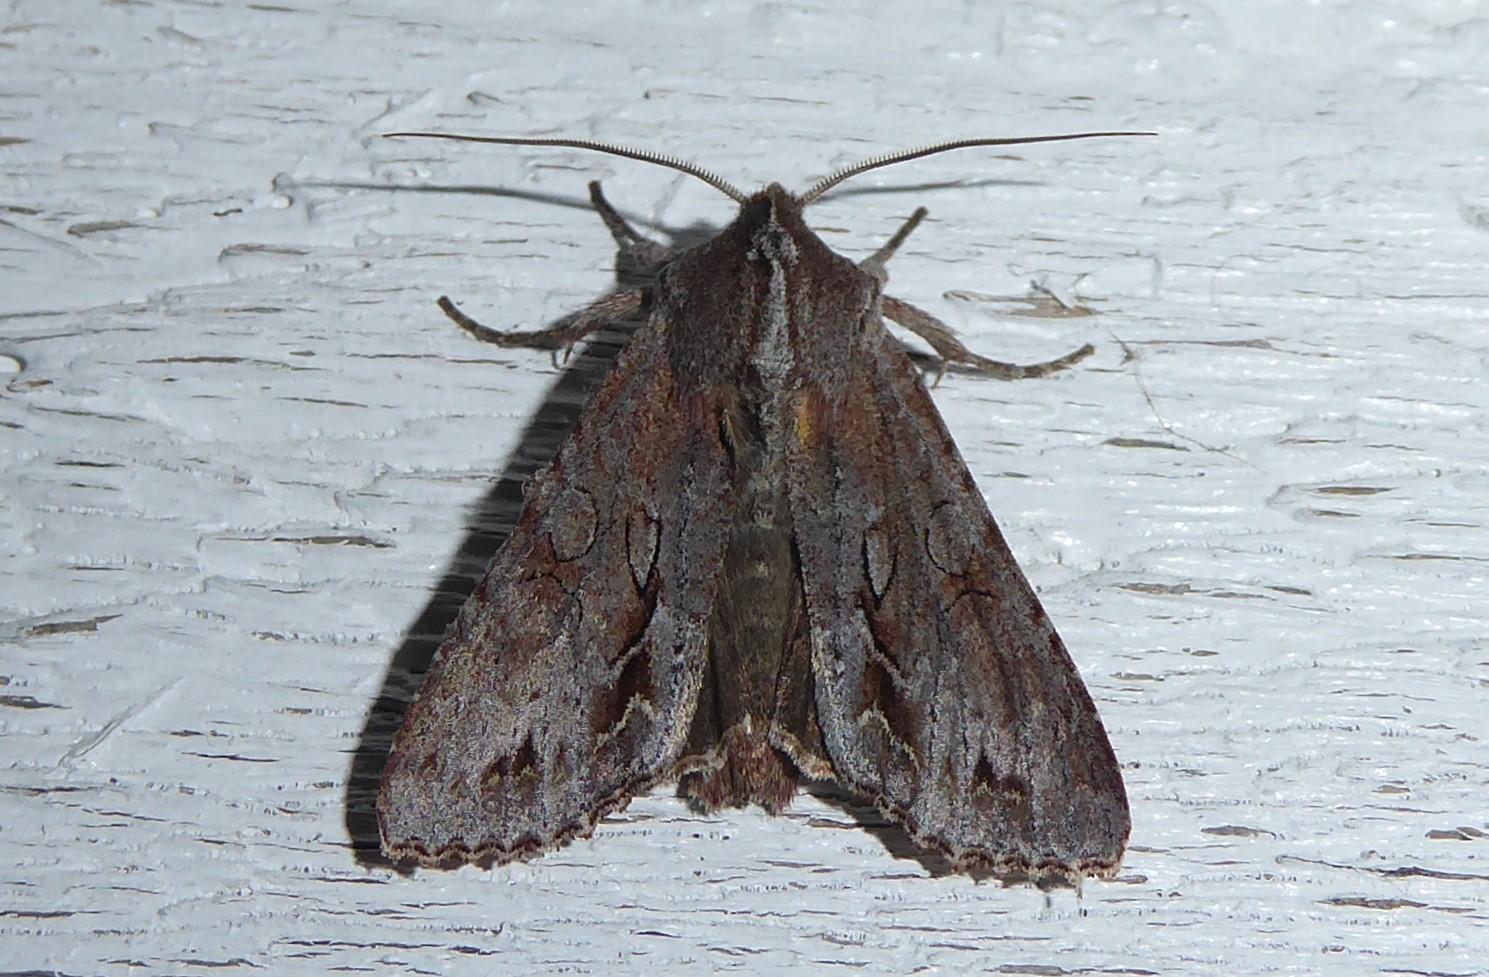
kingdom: Animalia
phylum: Arthropoda
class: Insecta
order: Lepidoptera
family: Noctuidae
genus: Ichneutica
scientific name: Ichneutica
